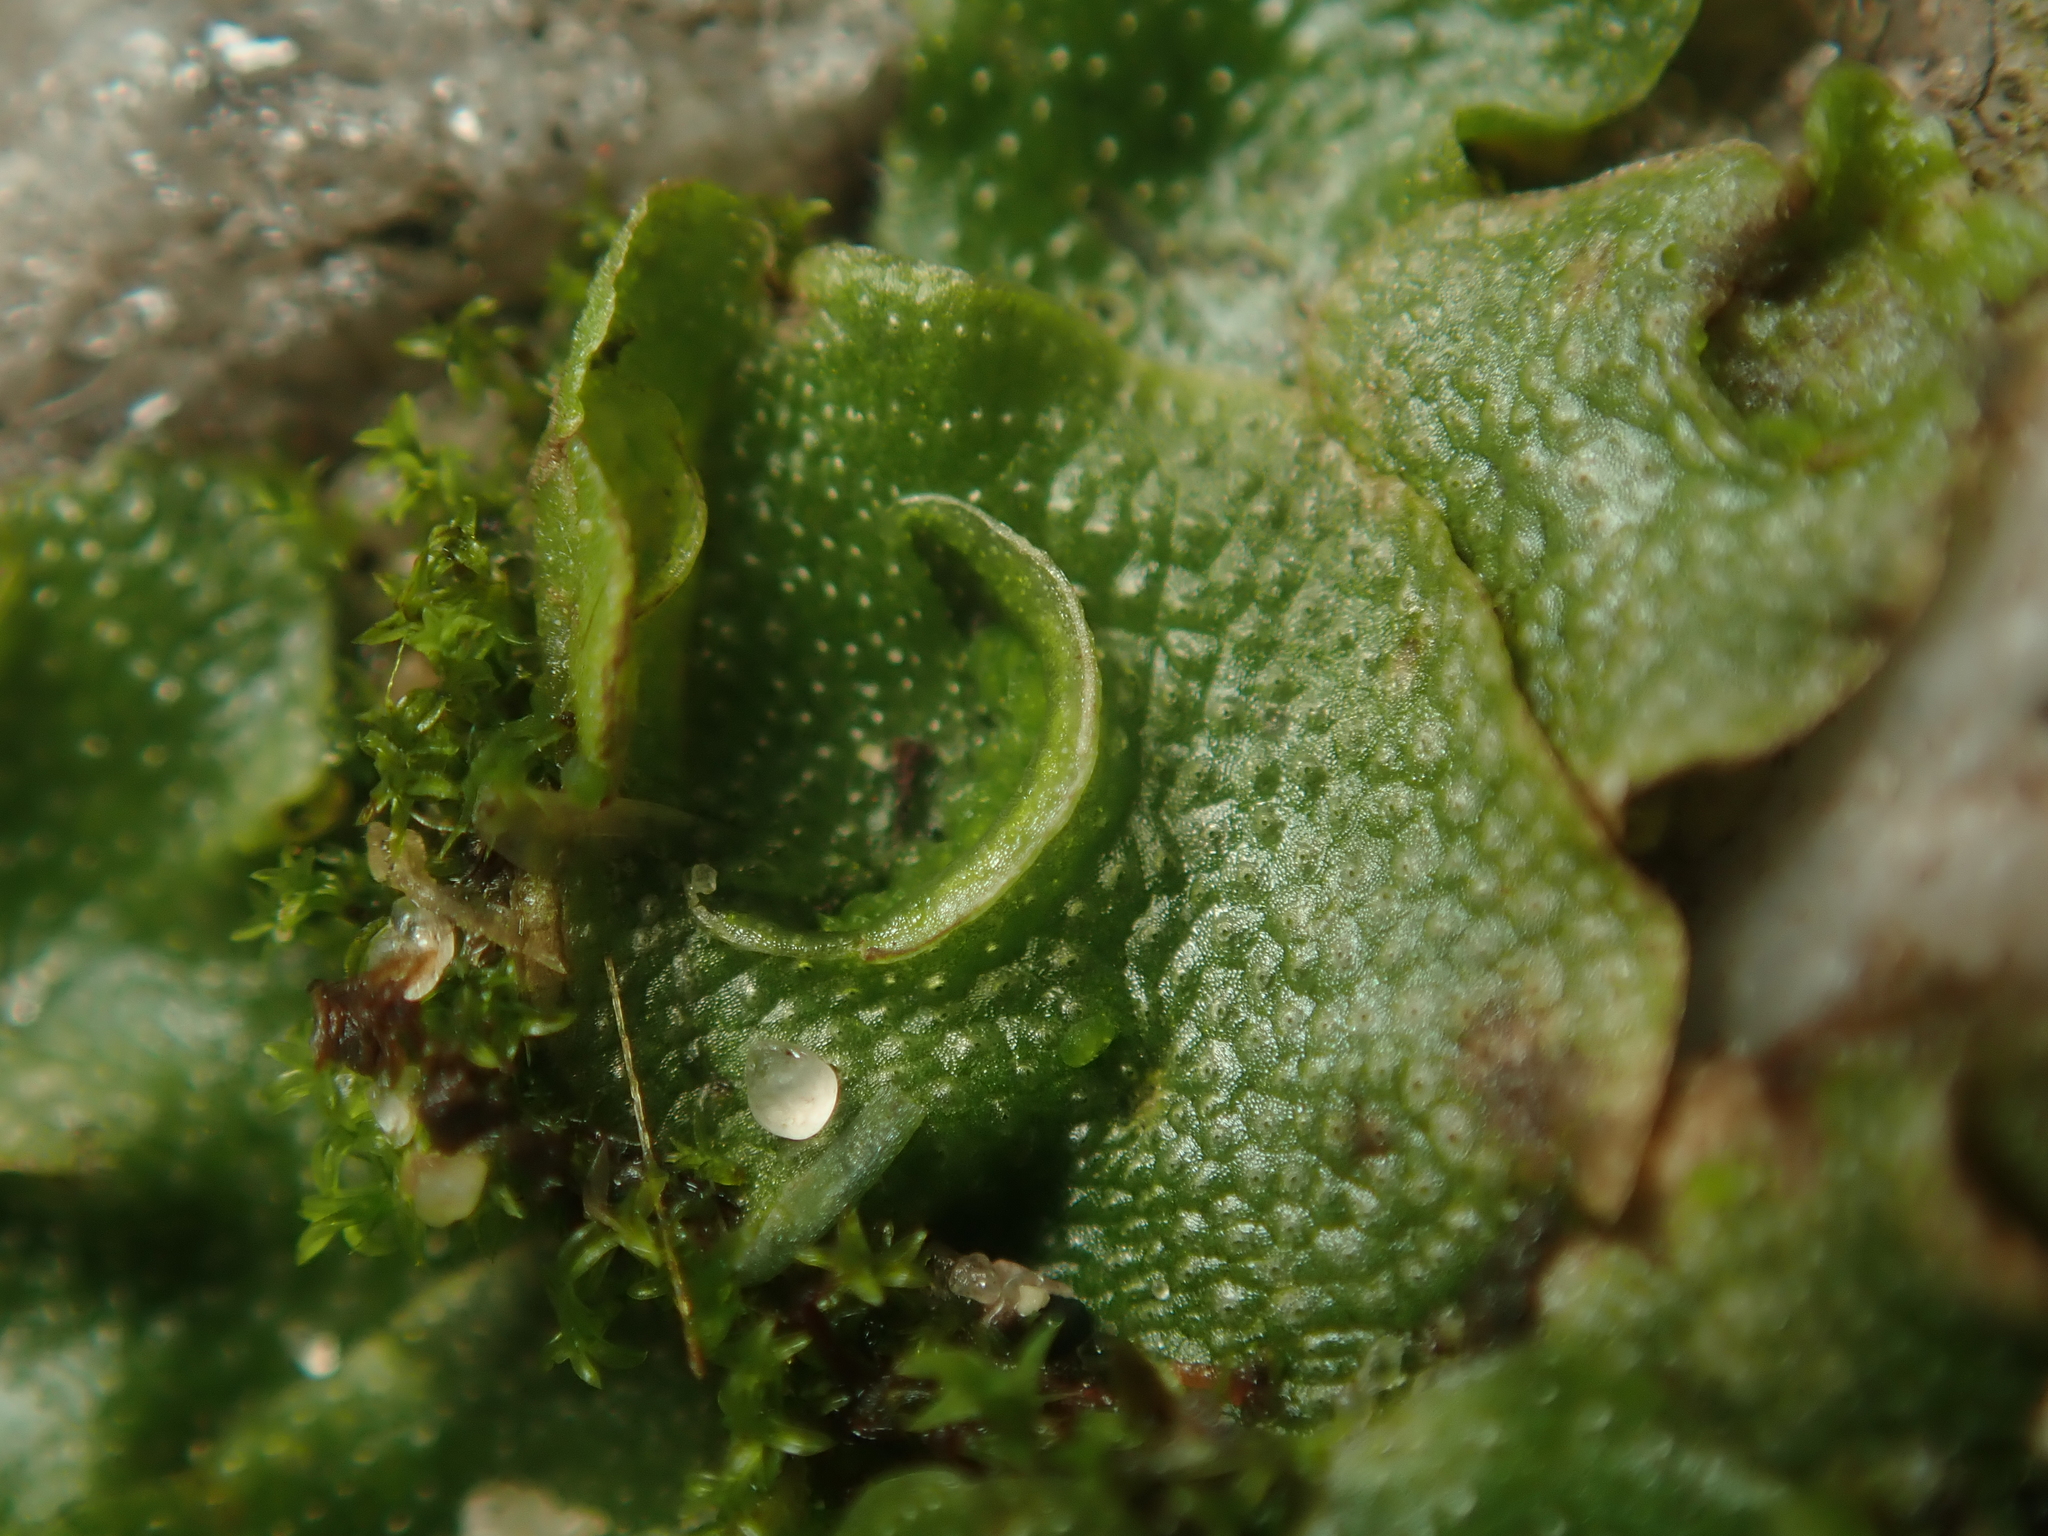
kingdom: Plantae
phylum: Marchantiophyta
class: Marchantiopsida
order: Lunulariales
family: Lunulariaceae
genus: Lunularia
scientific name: Lunularia cruciata
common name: Crescent-cup liverwort
